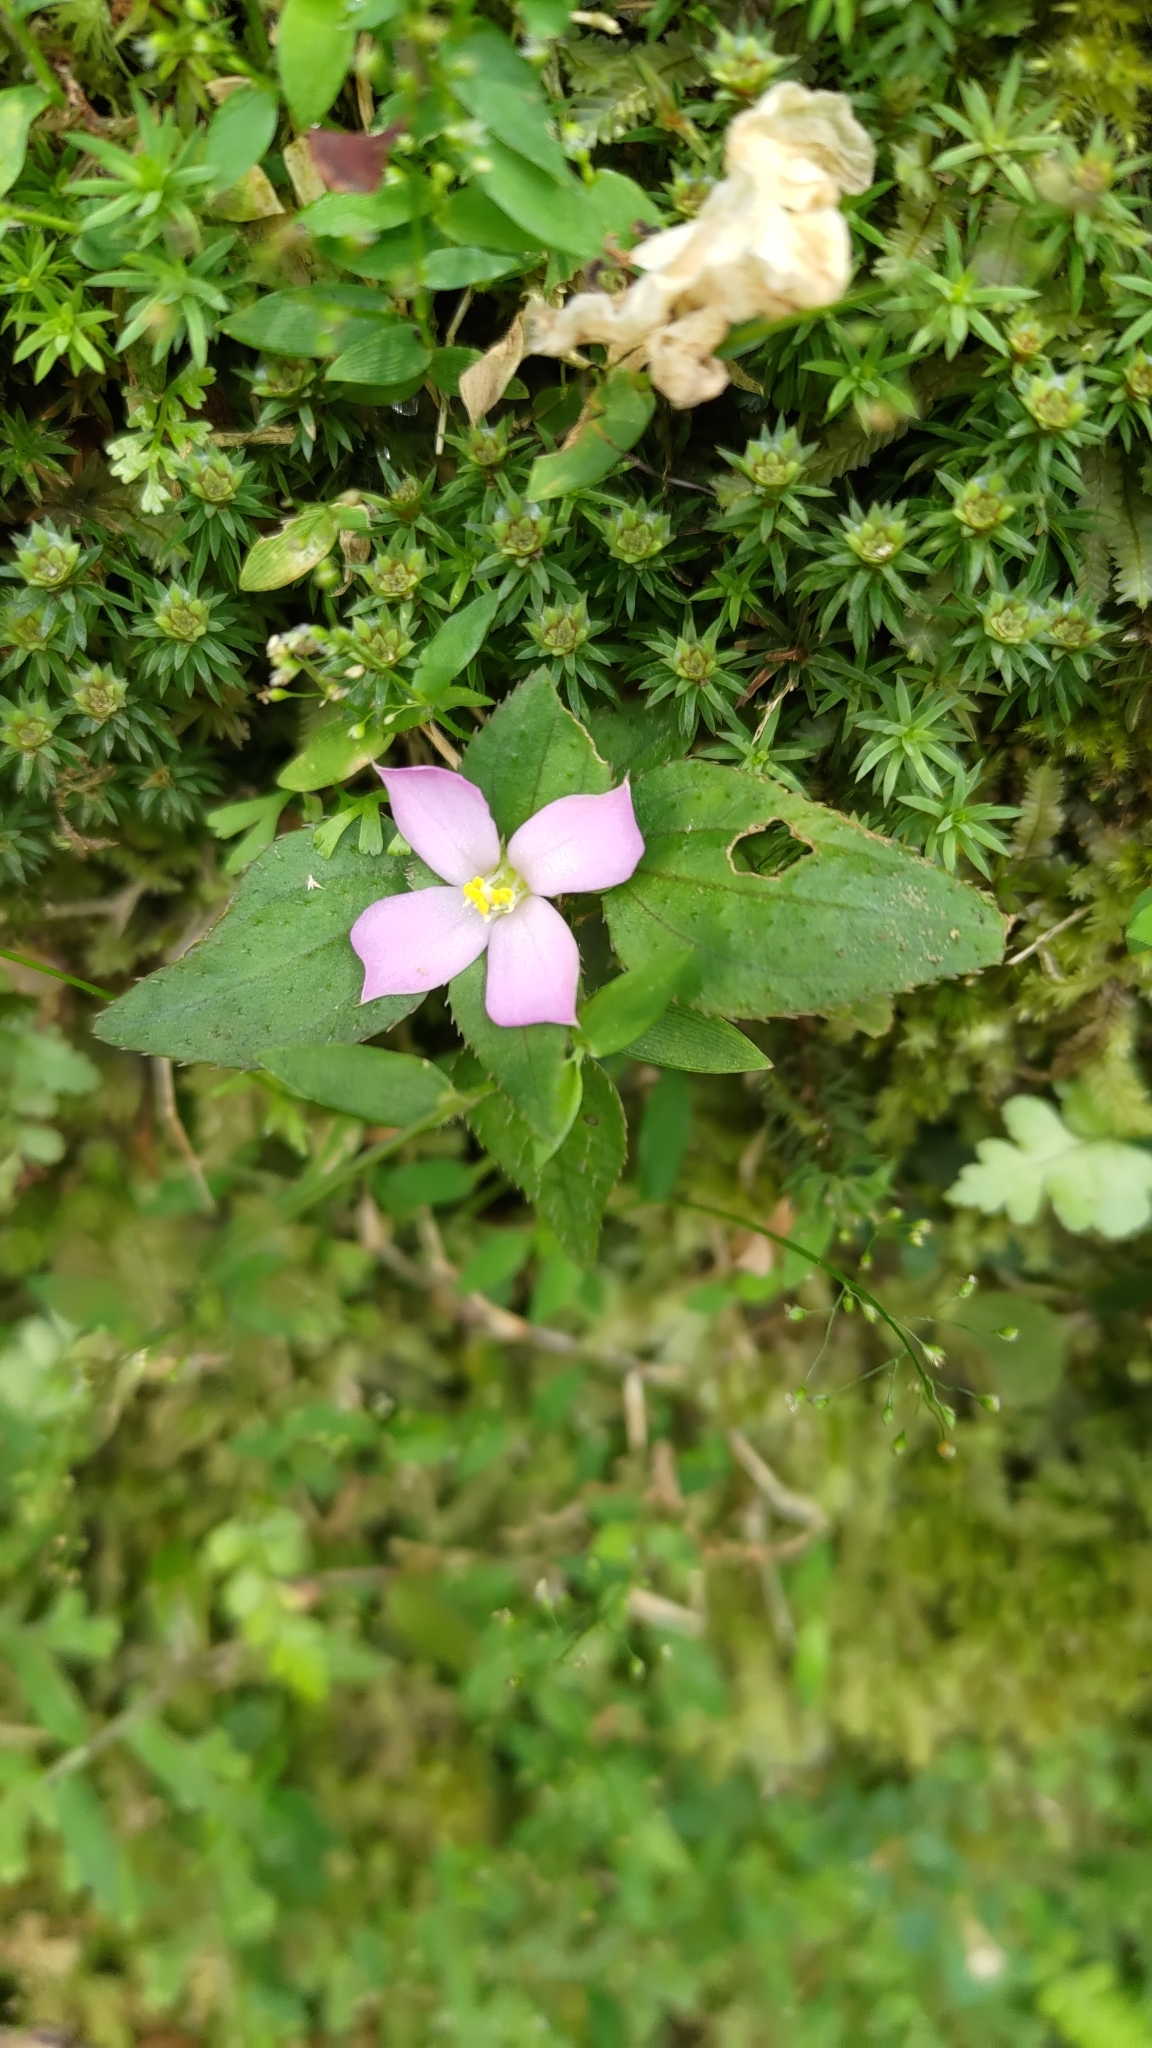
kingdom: Plantae
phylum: Tracheophyta
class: Magnoliopsida
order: Myrtales
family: Melastomataceae
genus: Sarcopyramis
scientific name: Sarcopyramis napalensis
